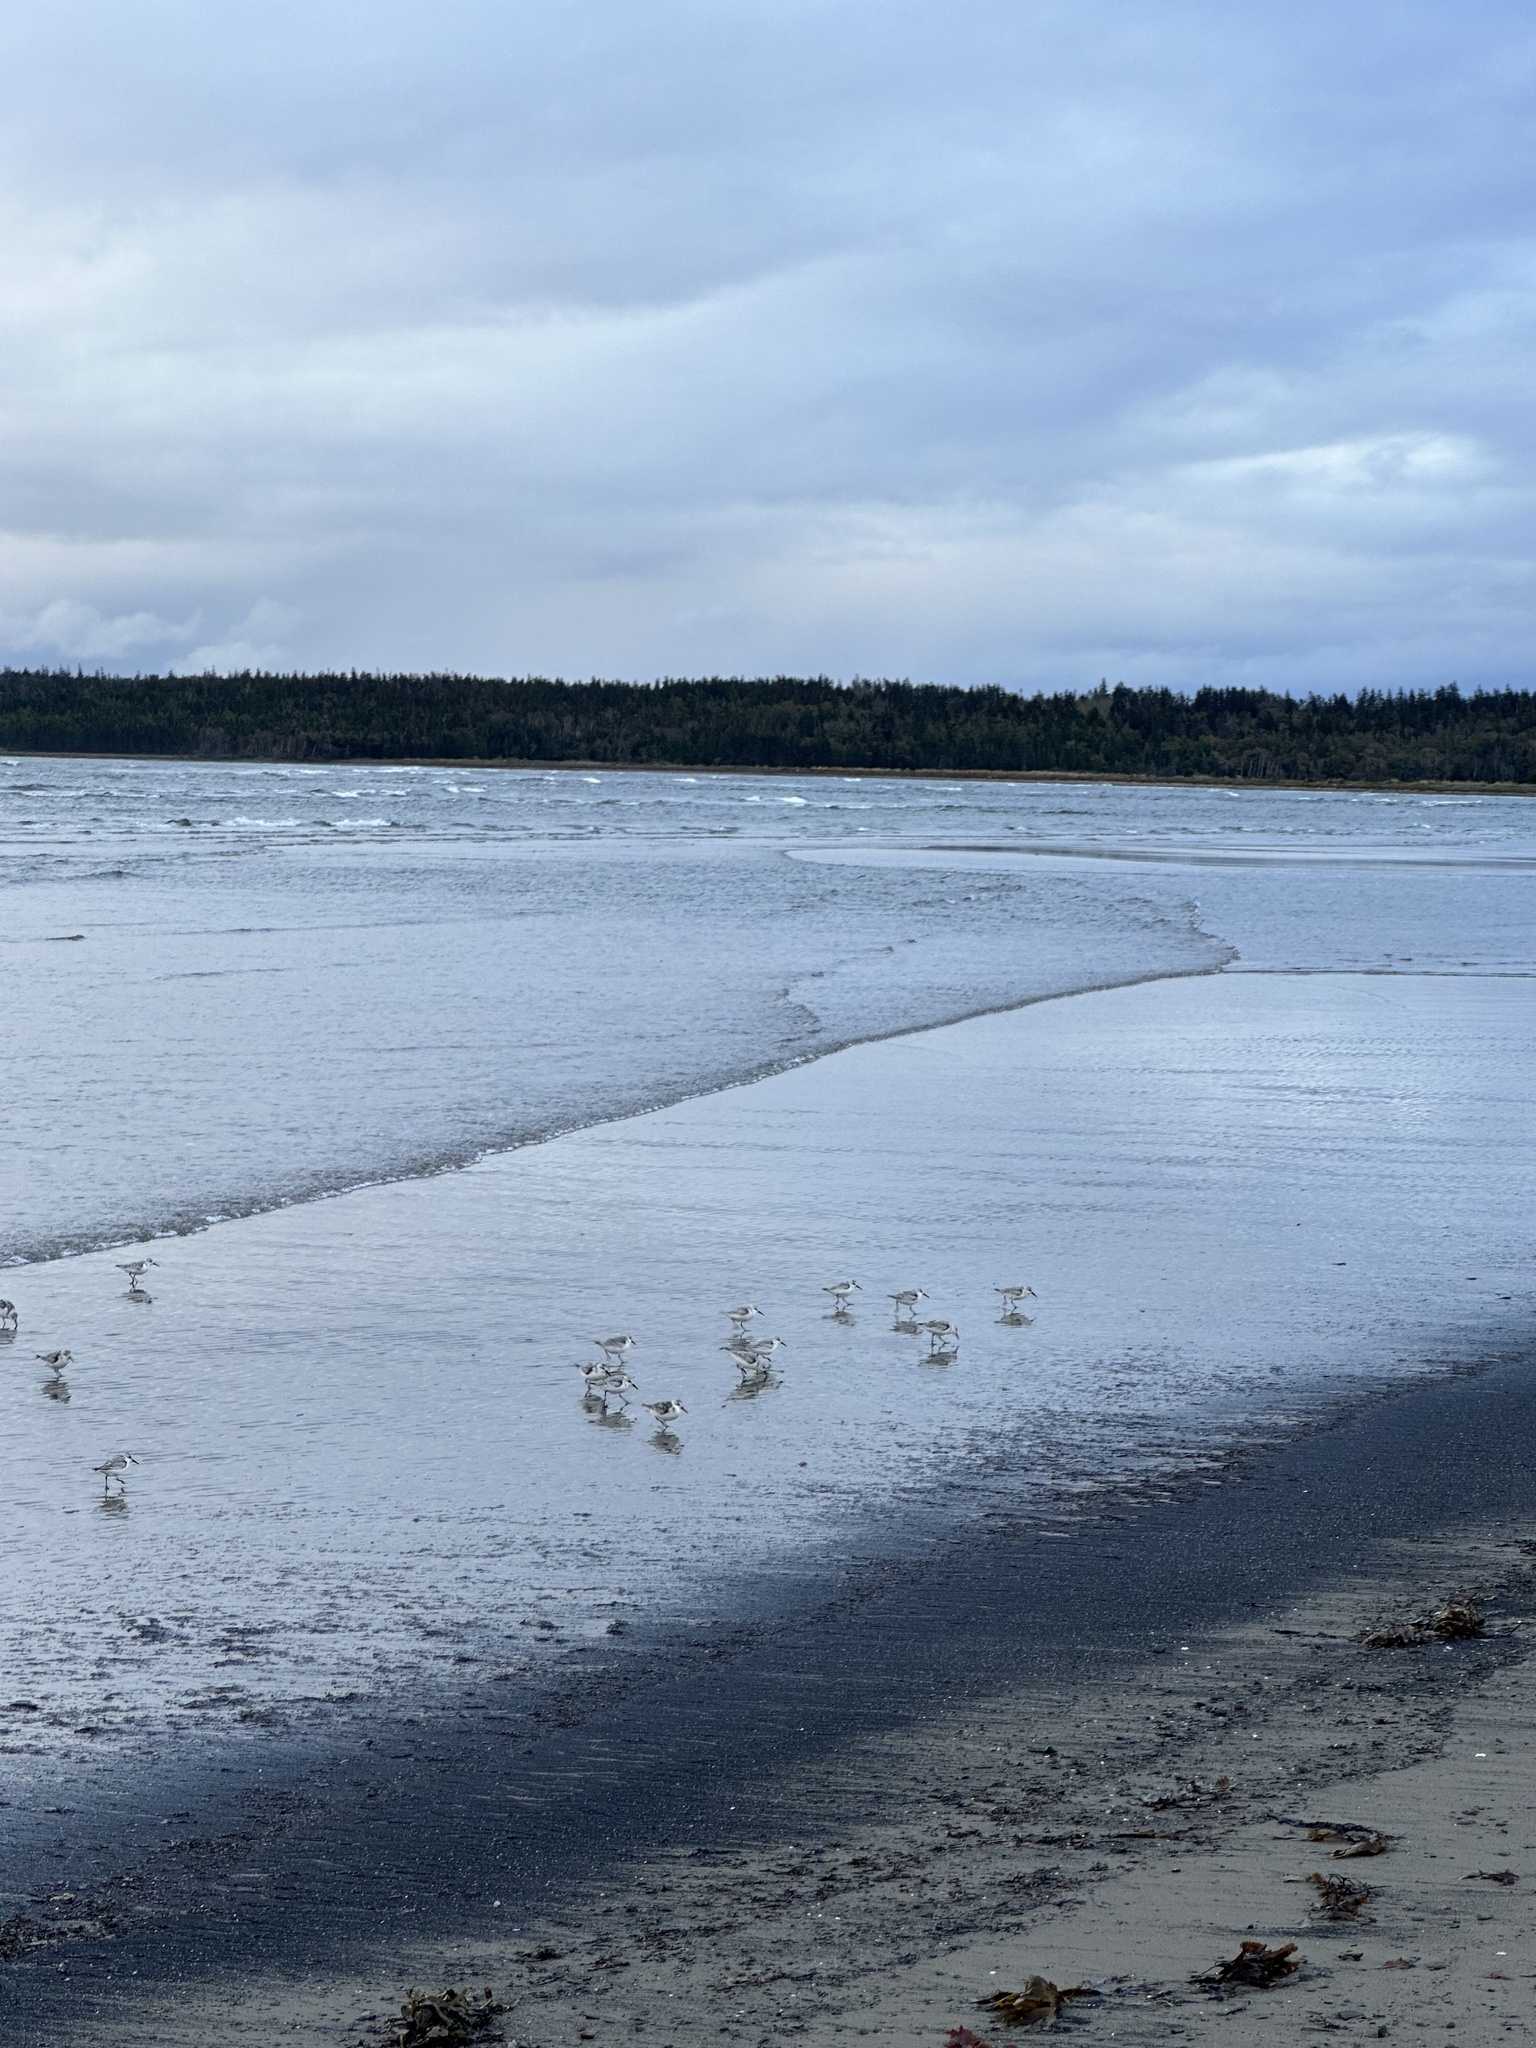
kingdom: Animalia
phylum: Chordata
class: Aves
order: Charadriiformes
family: Scolopacidae
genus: Calidris
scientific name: Calidris alba
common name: Sanderling
